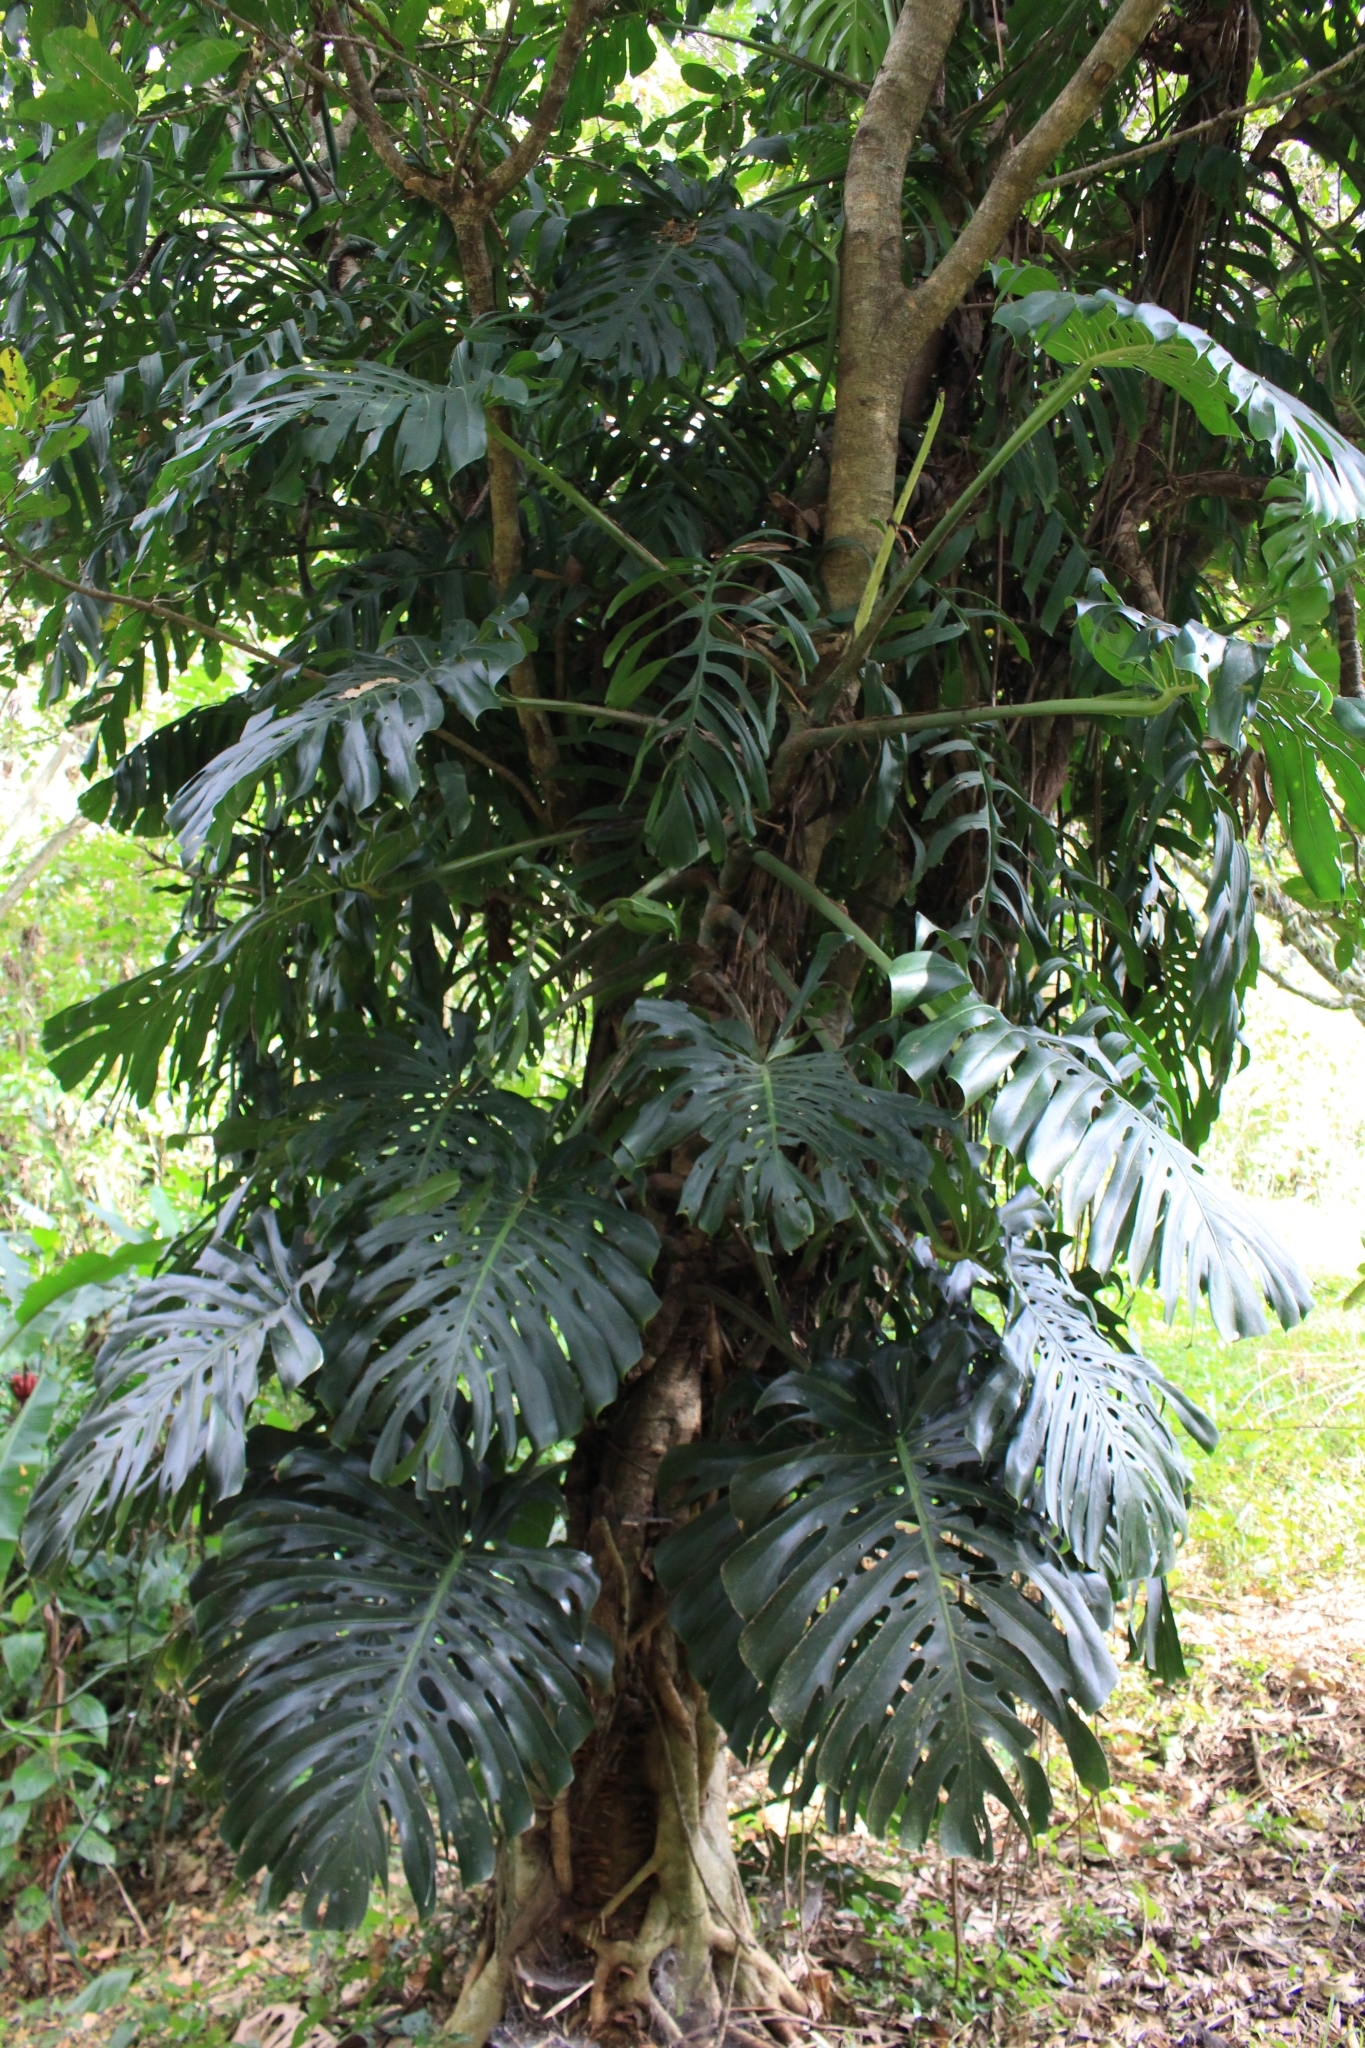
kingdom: Plantae
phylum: Tracheophyta
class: Liliopsida
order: Alismatales
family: Araceae
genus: Monstera
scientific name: Monstera deliciosa
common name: Cut-leaf-philodendron
